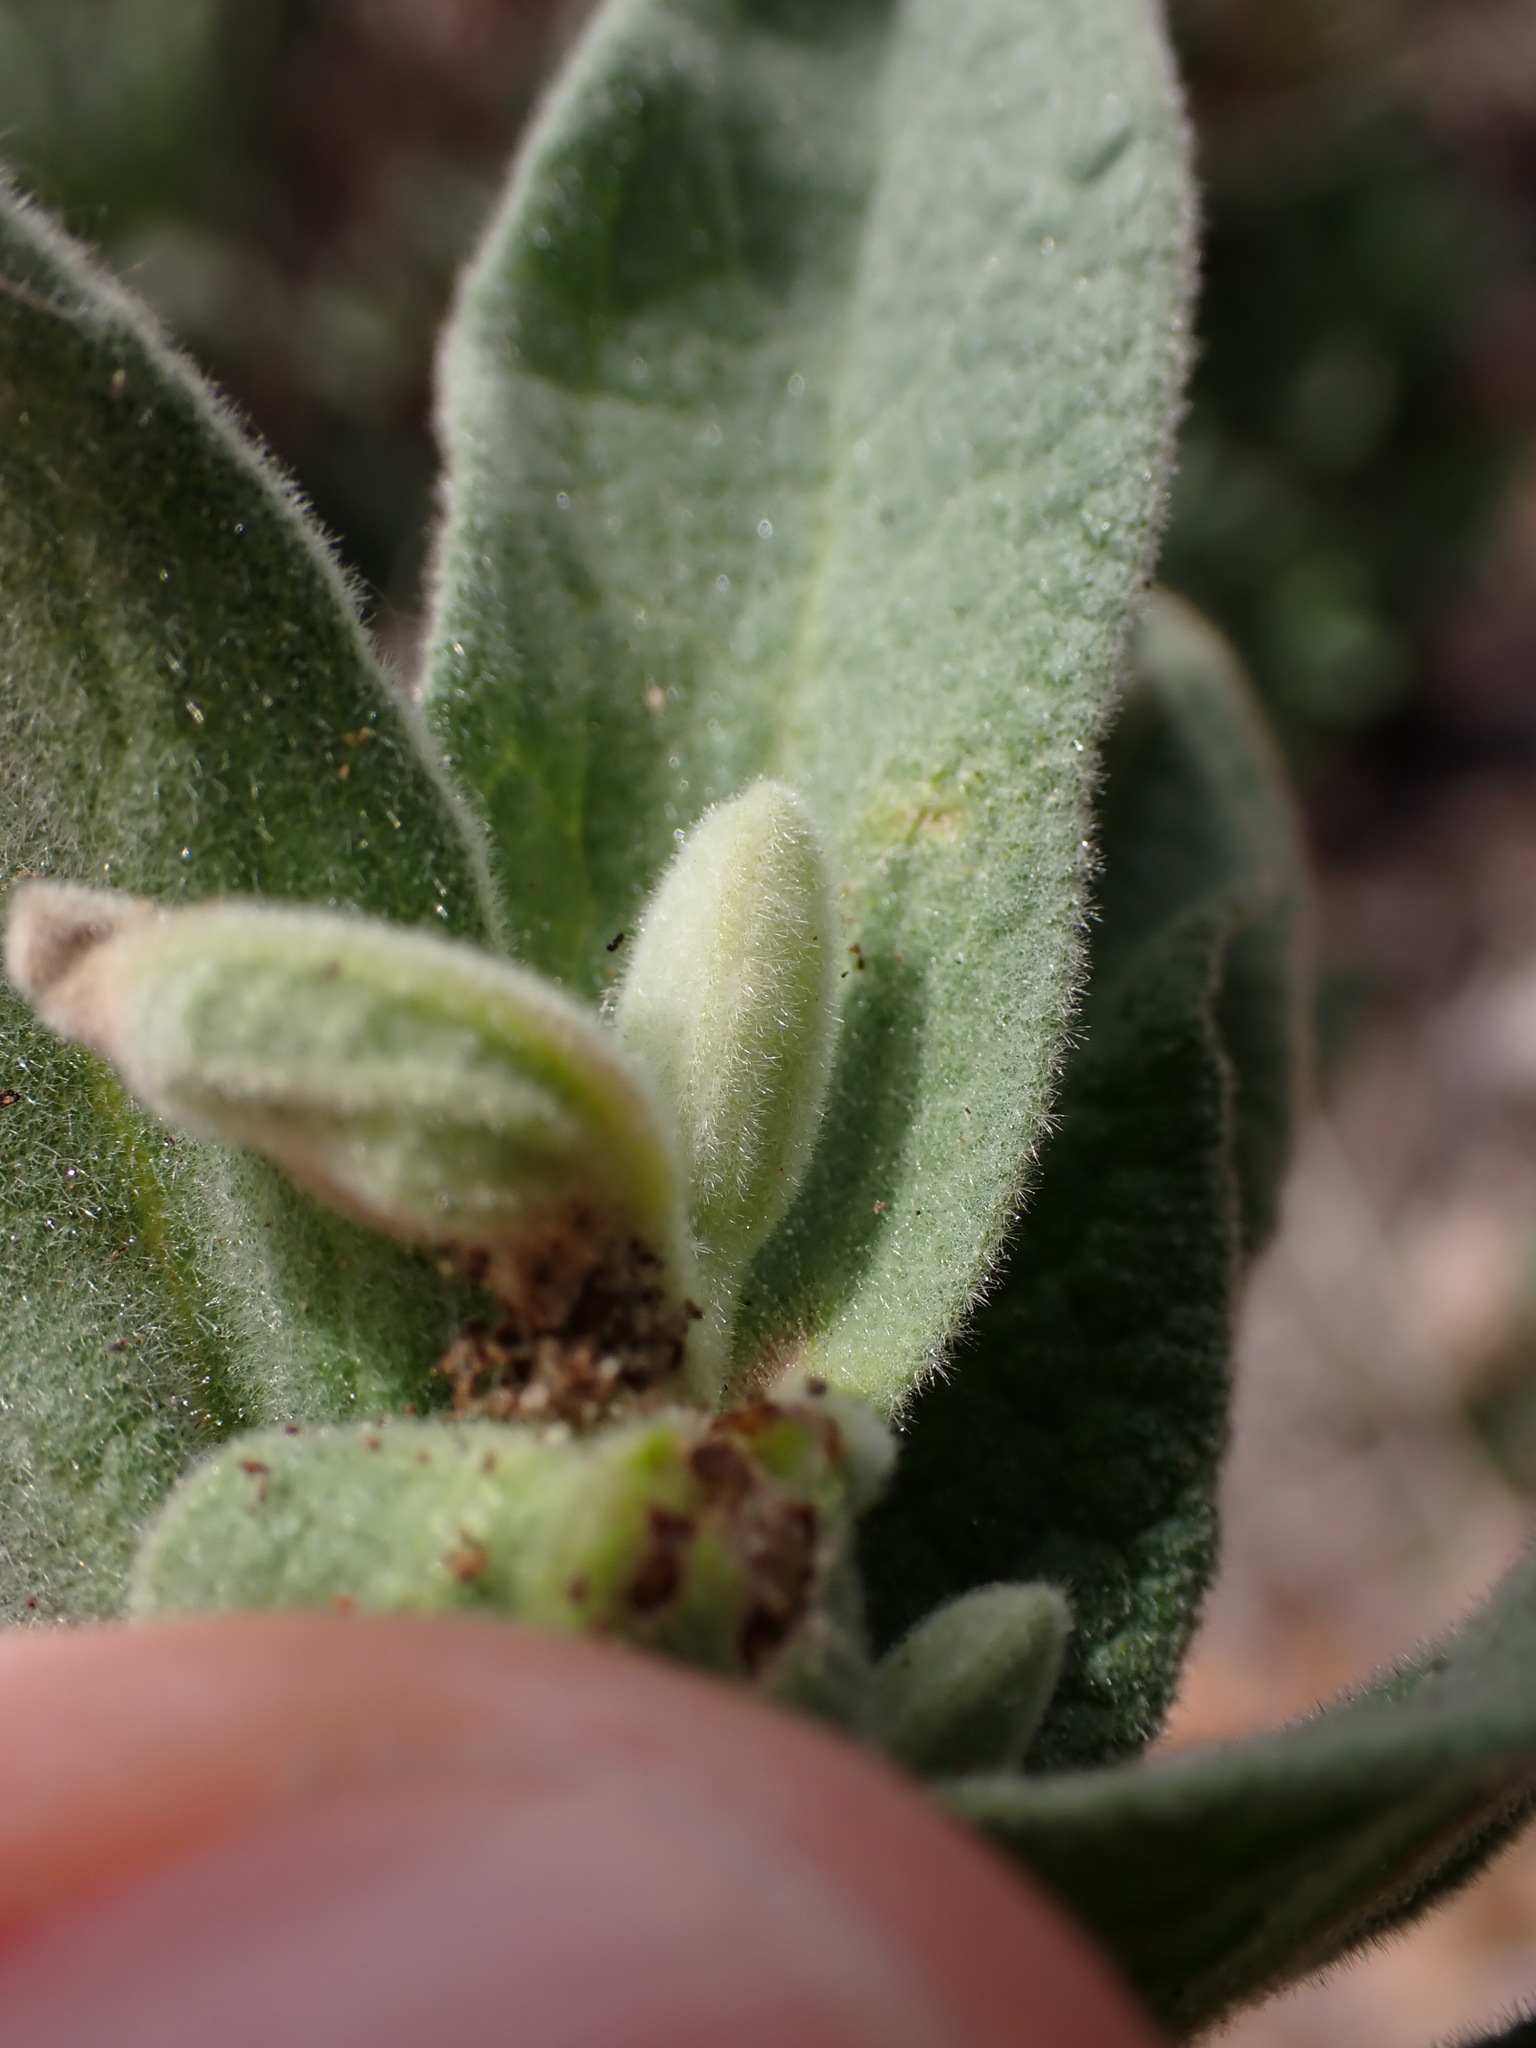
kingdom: Plantae
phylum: Tracheophyta
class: Magnoliopsida
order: Malvales
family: Cistaceae
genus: Cistus
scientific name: Cistus albidus
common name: White-leaf rock-rose
